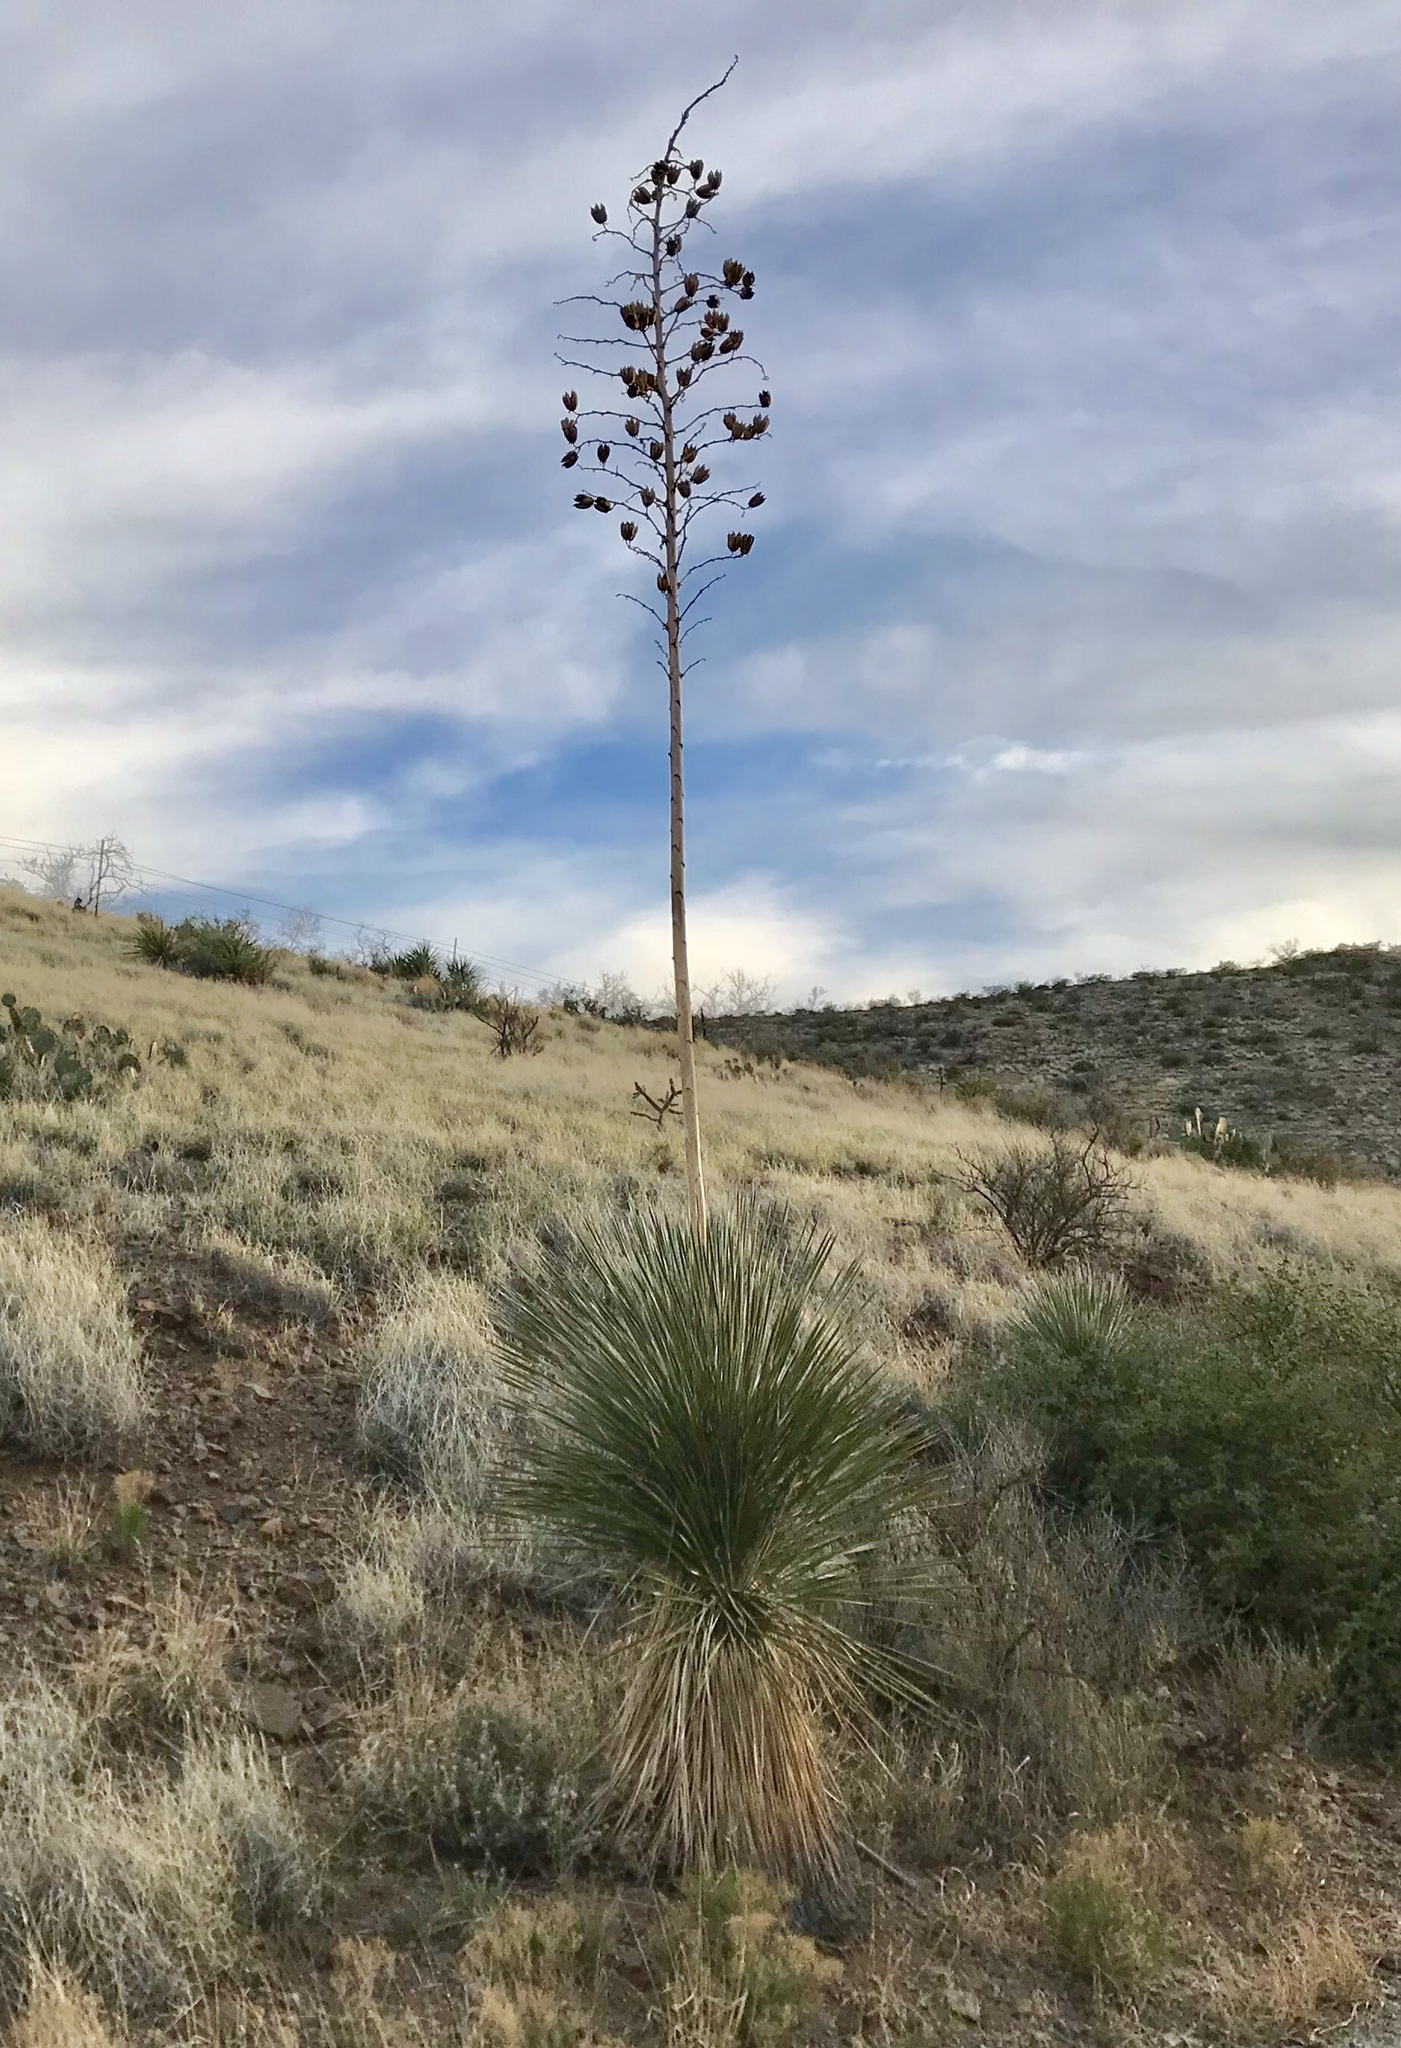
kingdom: Plantae
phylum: Tracheophyta
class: Liliopsida
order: Asparagales
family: Asparagaceae
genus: Yucca
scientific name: Yucca elata
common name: Palmella
